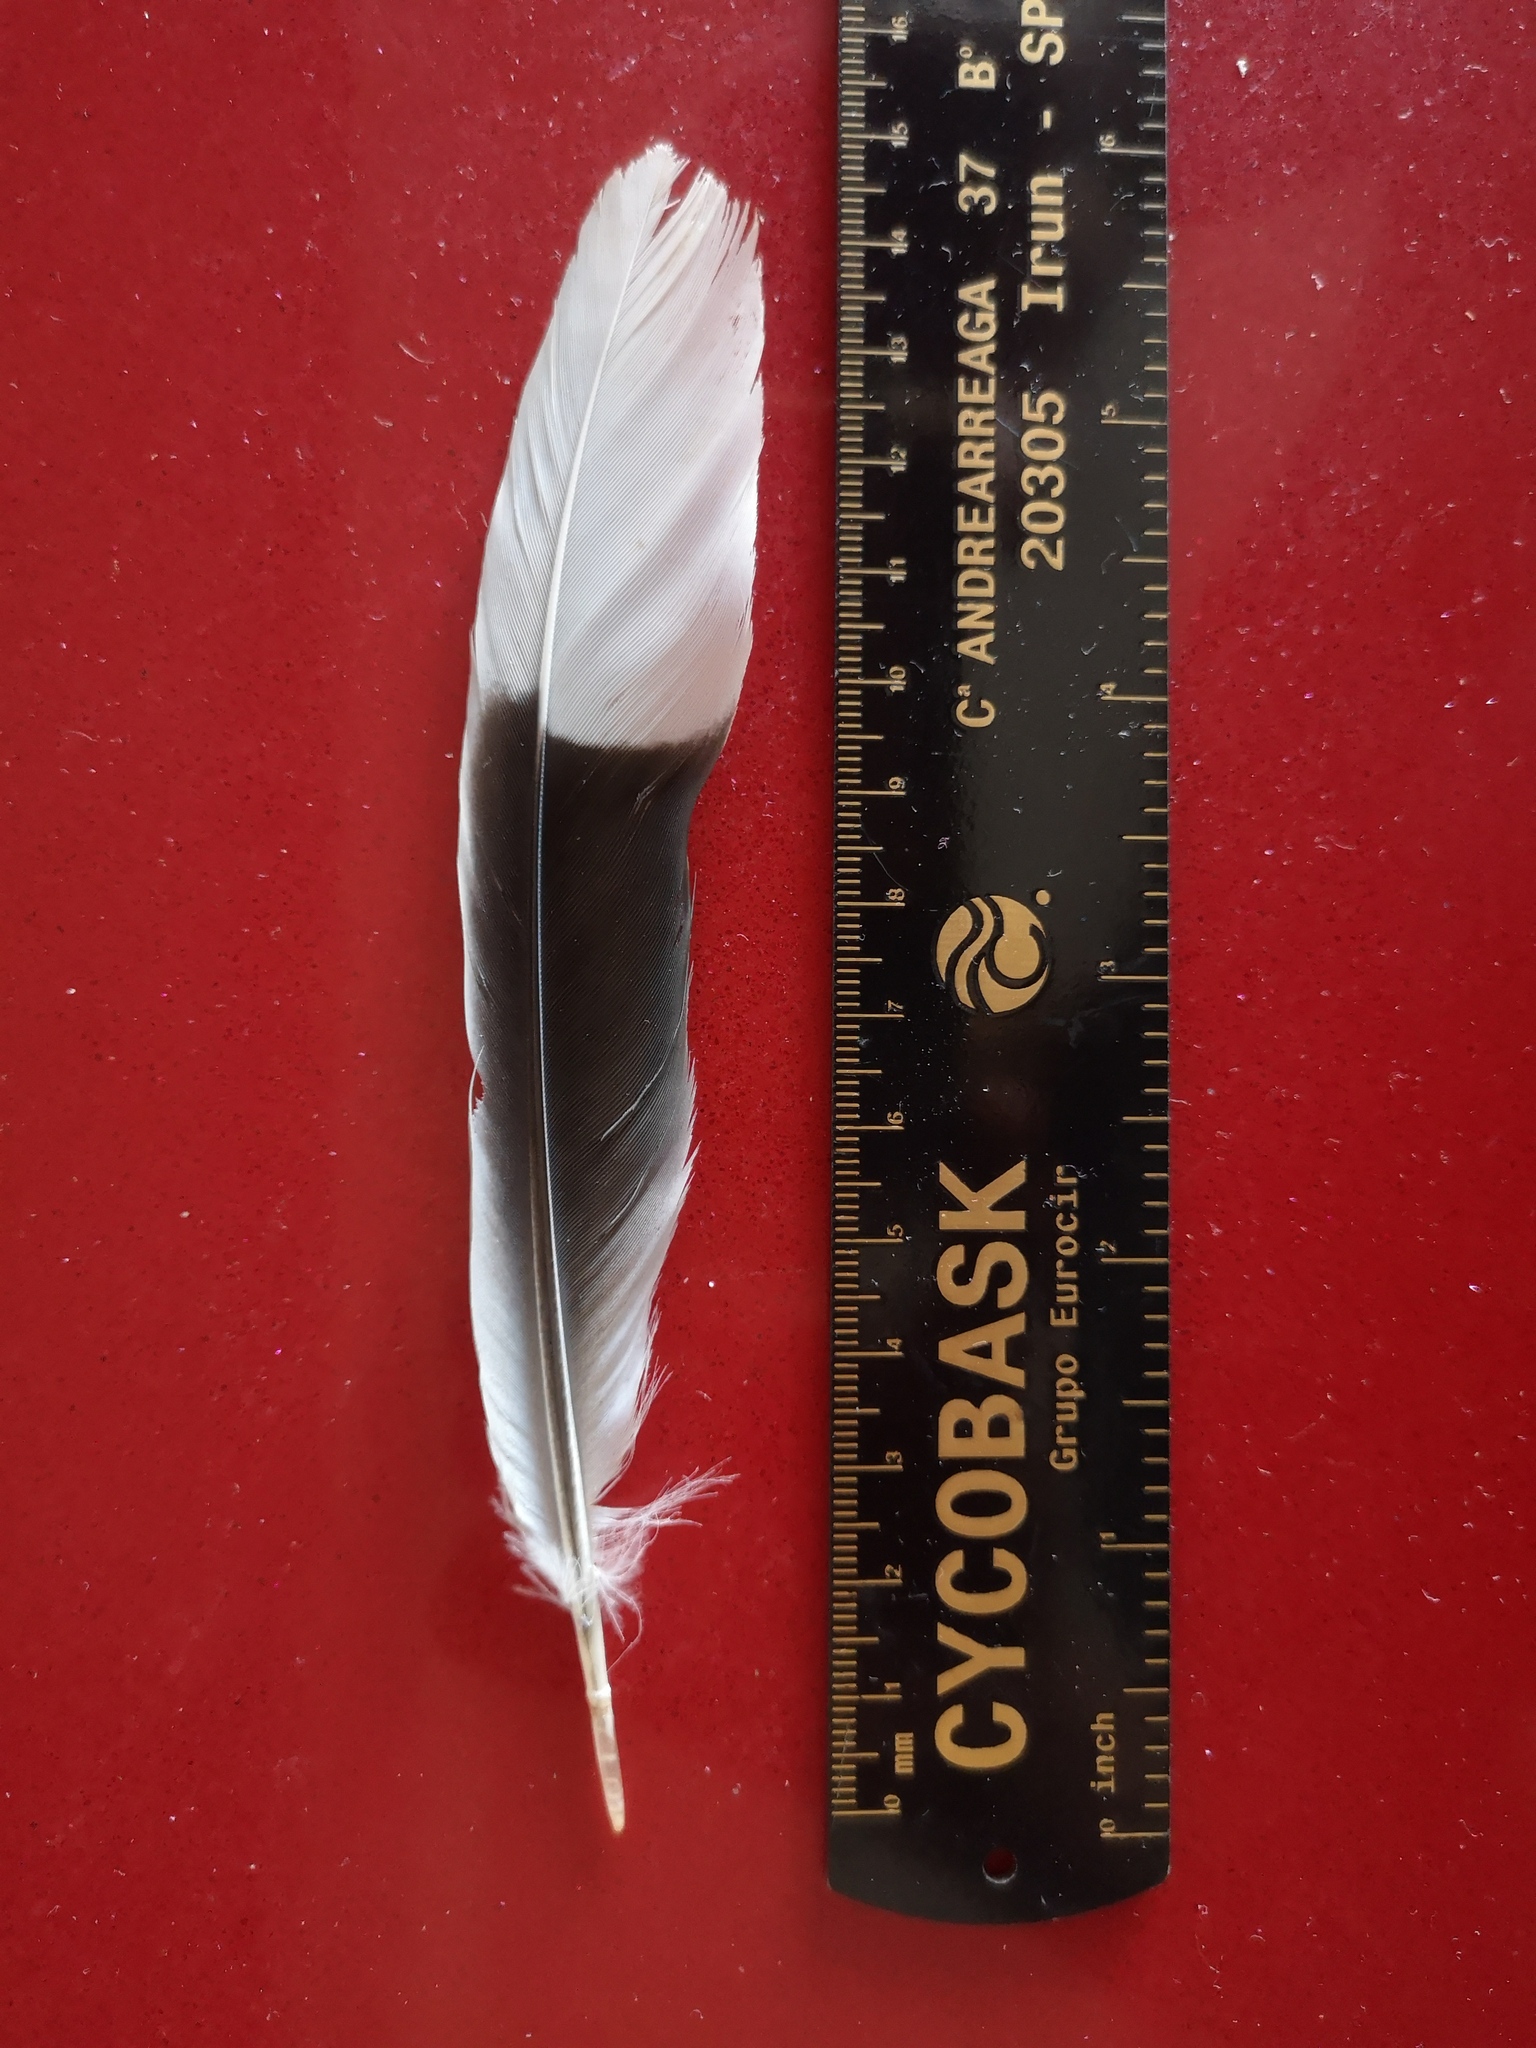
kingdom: Animalia
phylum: Chordata
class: Aves
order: Columbiformes
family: Columbidae
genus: Streptopelia
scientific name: Streptopelia decaocto
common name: Eurasian collared dove
